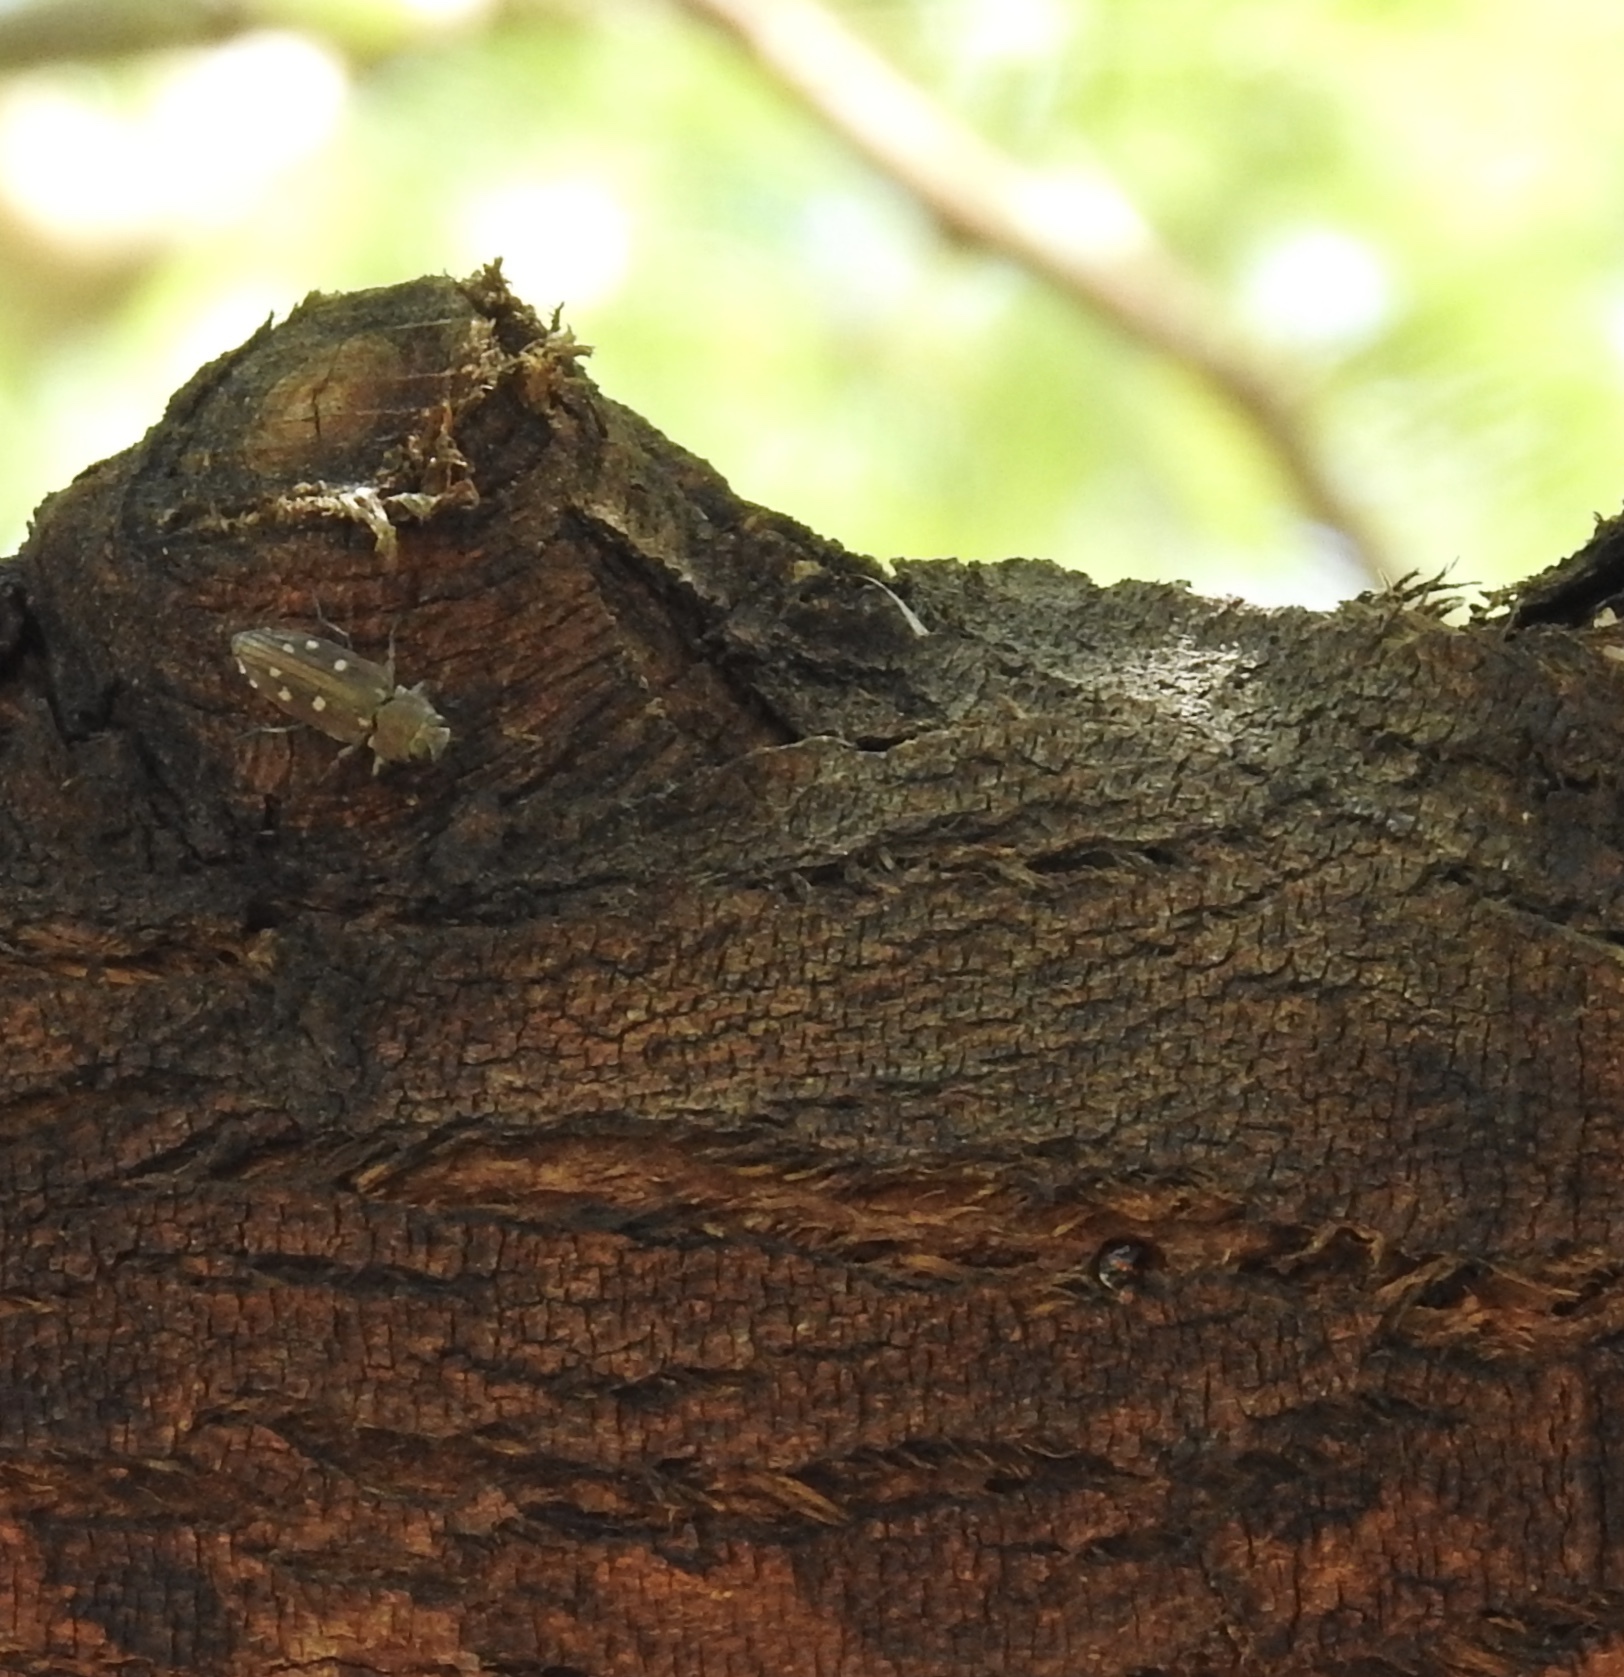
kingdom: Animalia
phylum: Arthropoda
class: Insecta
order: Coleoptera
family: Buprestidae
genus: Chrysobothris
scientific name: Chrysobothris octocola
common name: Jewel beetle
